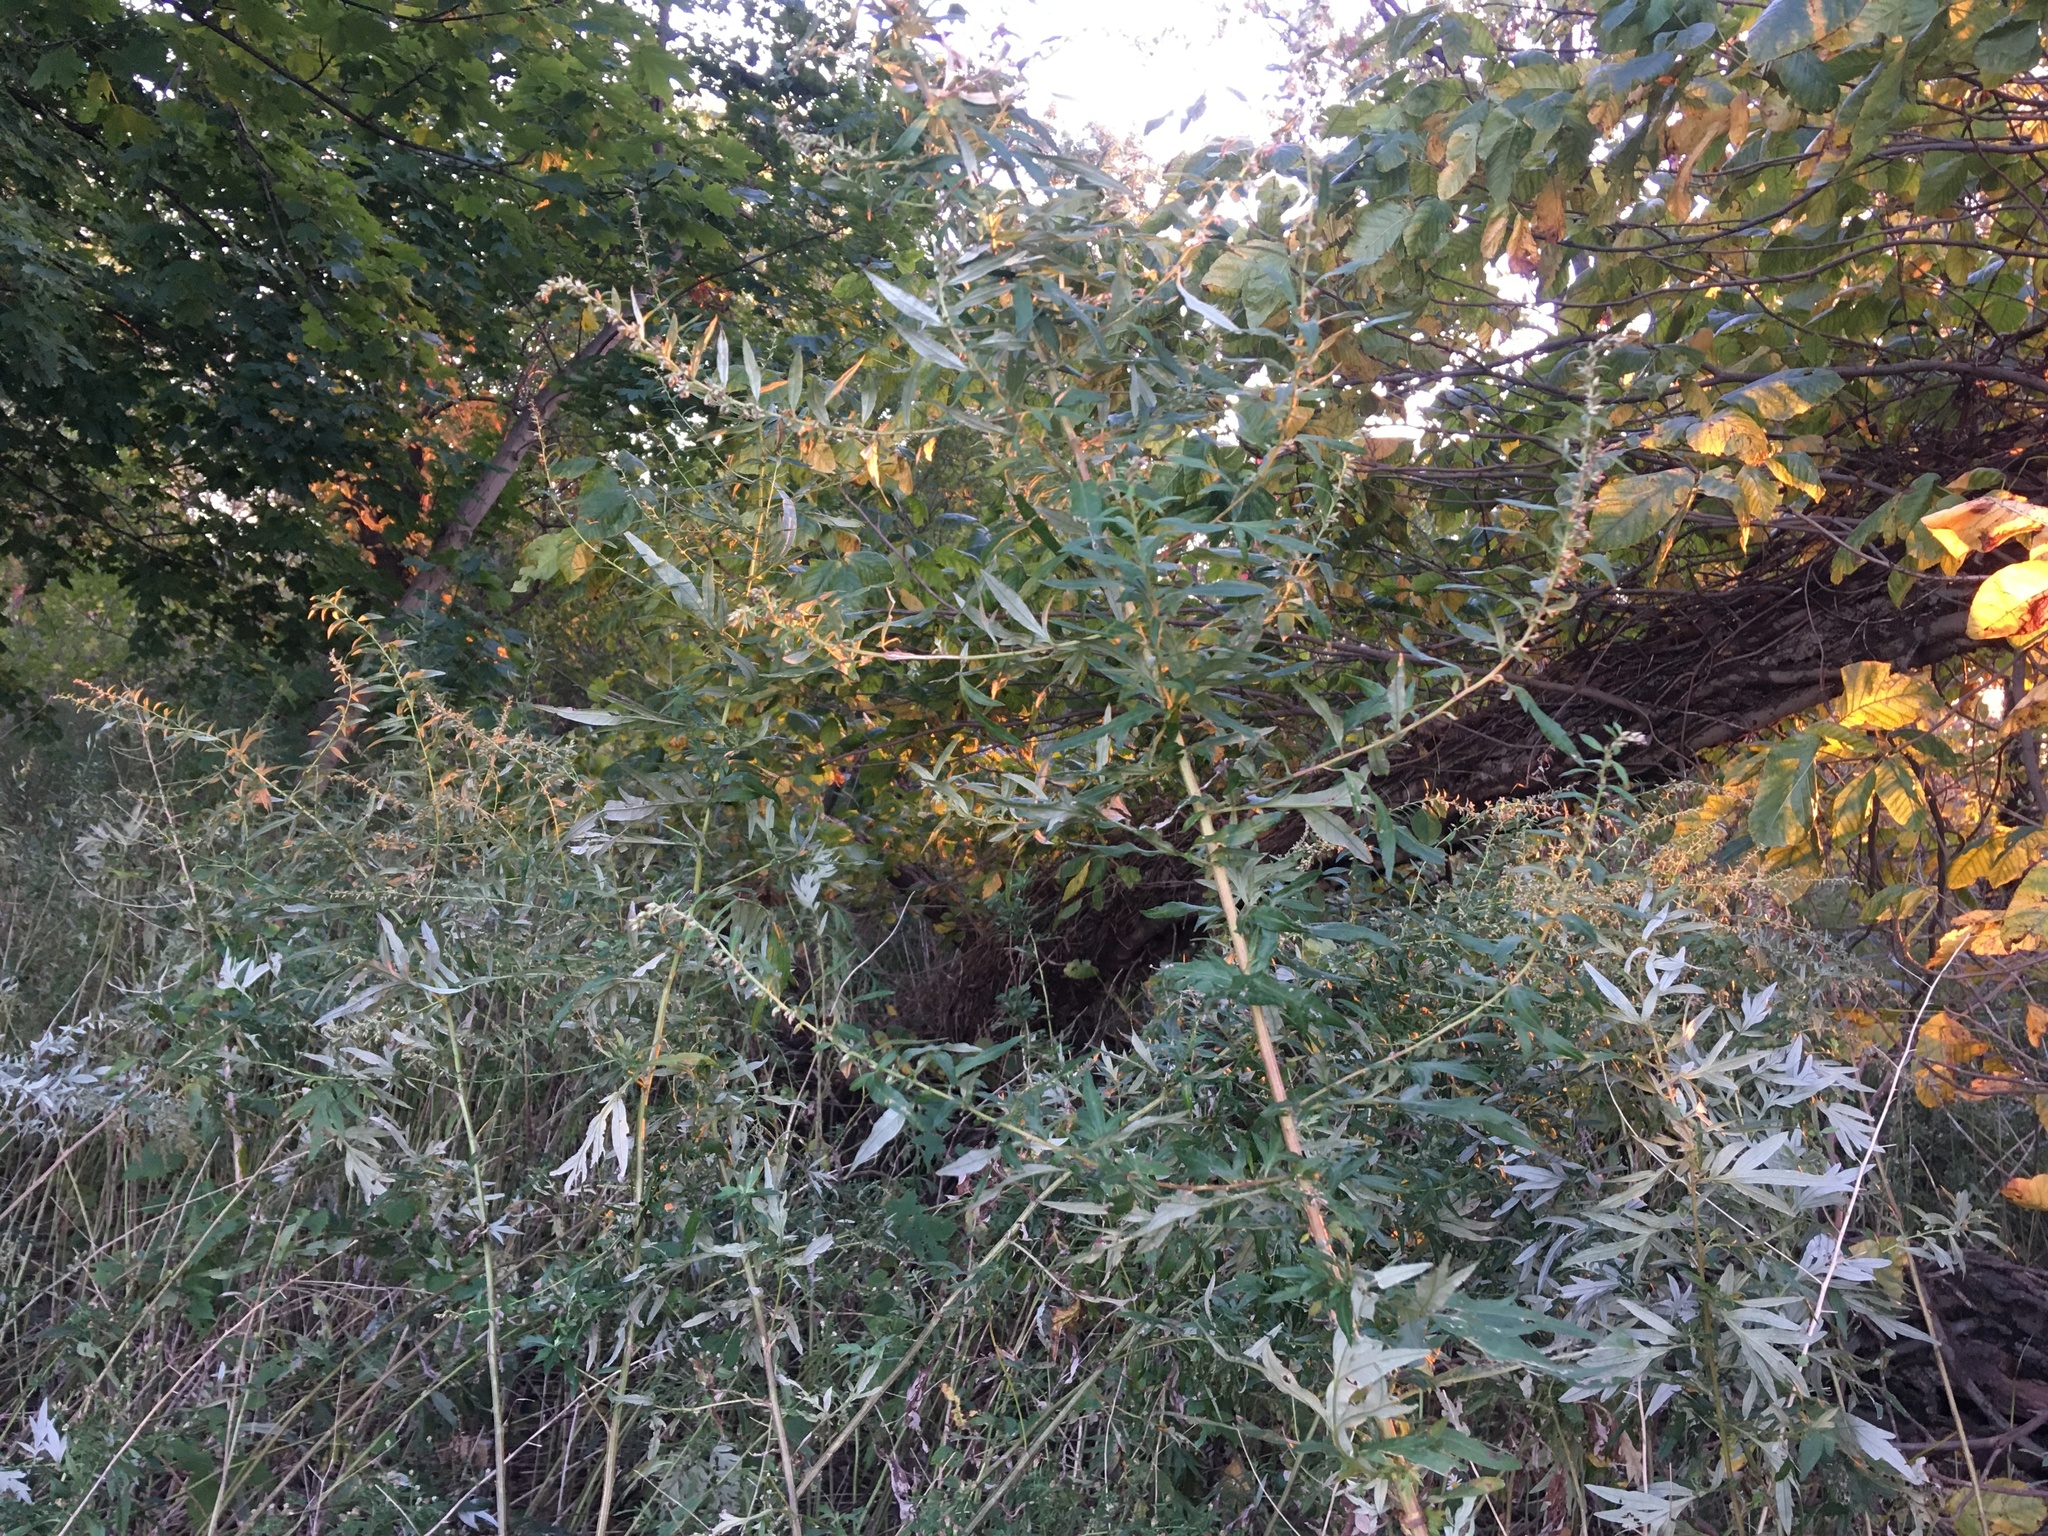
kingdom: Plantae
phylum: Tracheophyta
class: Magnoliopsida
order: Asterales
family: Asteraceae
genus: Artemisia
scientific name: Artemisia vulgaris
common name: Mugwort
